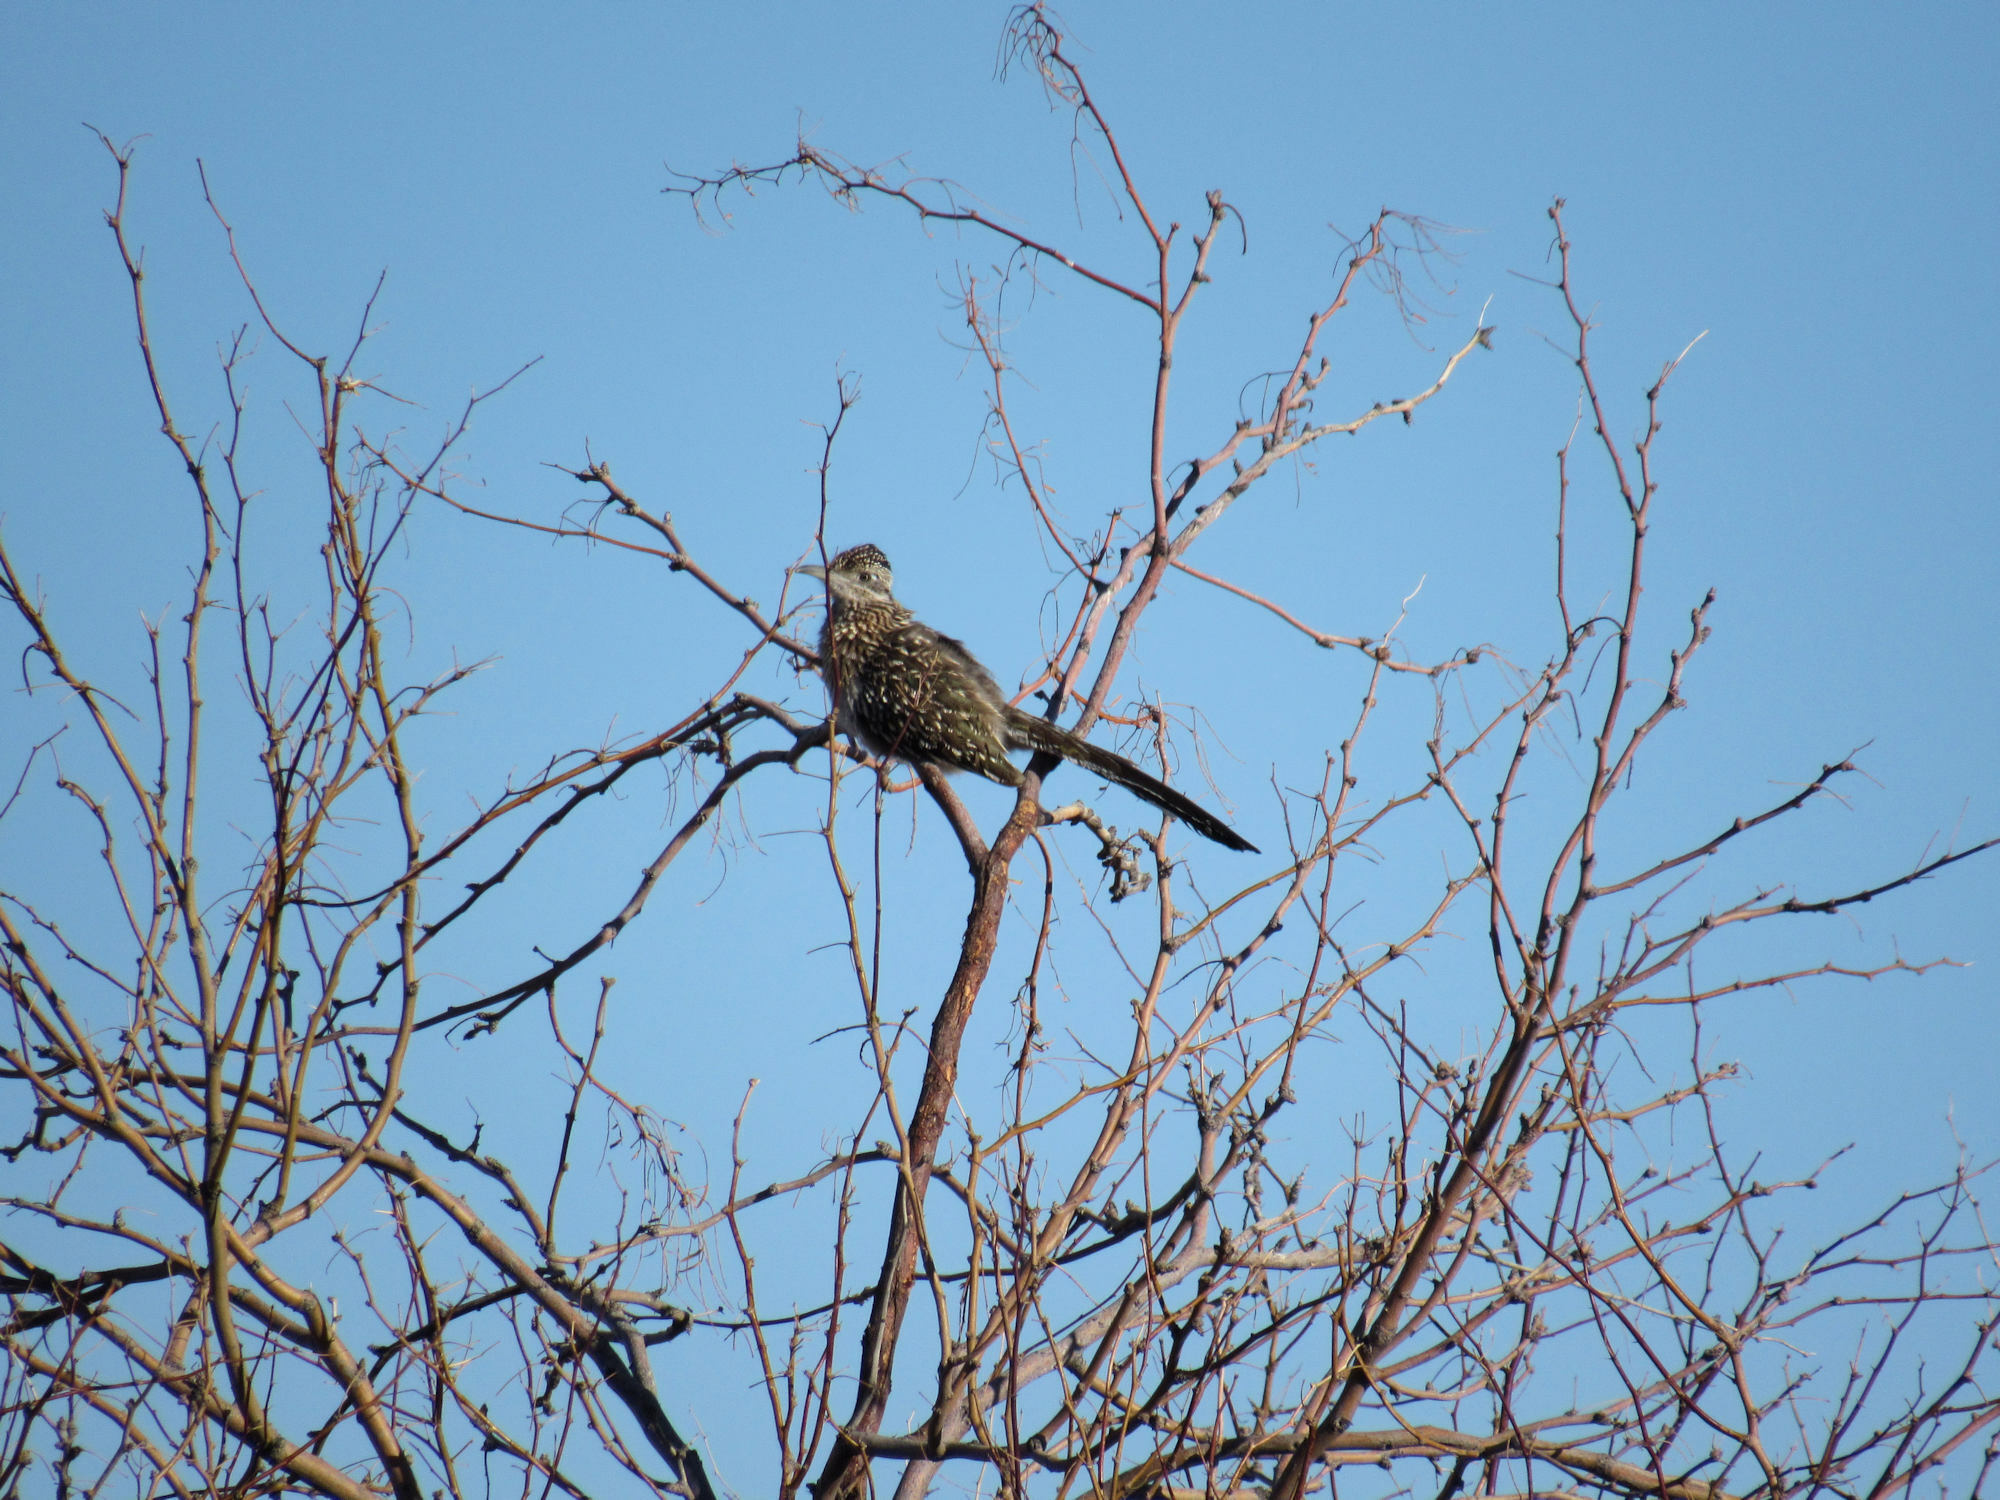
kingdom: Animalia
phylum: Chordata
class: Aves
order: Cuculiformes
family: Cuculidae
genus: Geococcyx
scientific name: Geococcyx californianus
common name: Greater roadrunner
